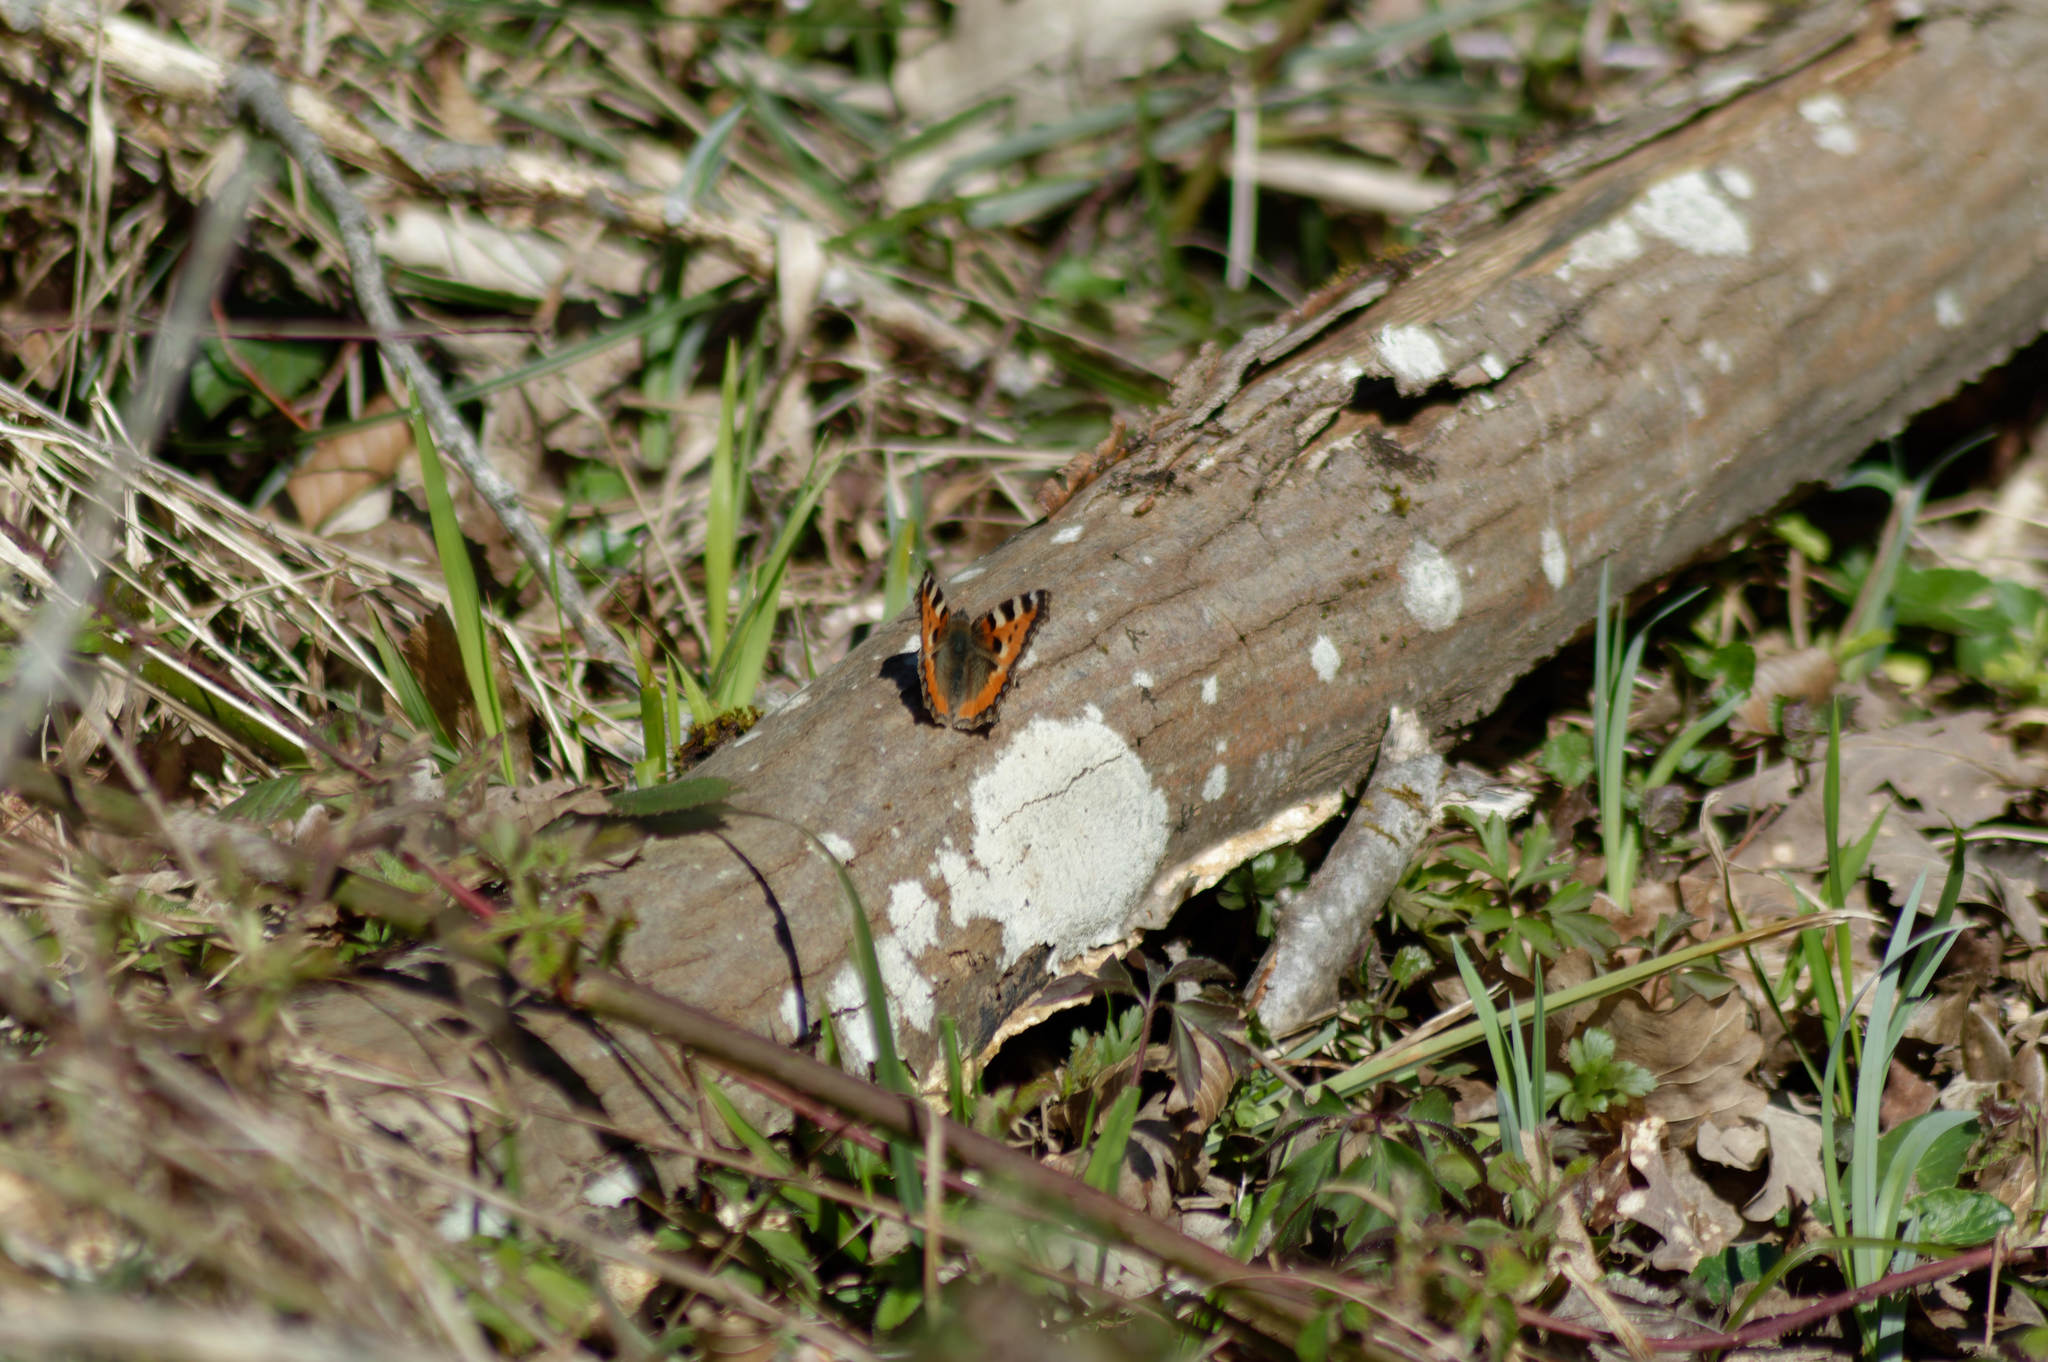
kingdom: Animalia
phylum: Arthropoda
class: Insecta
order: Lepidoptera
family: Nymphalidae
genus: Aglais
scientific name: Aglais urticae
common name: Small tortoiseshell
